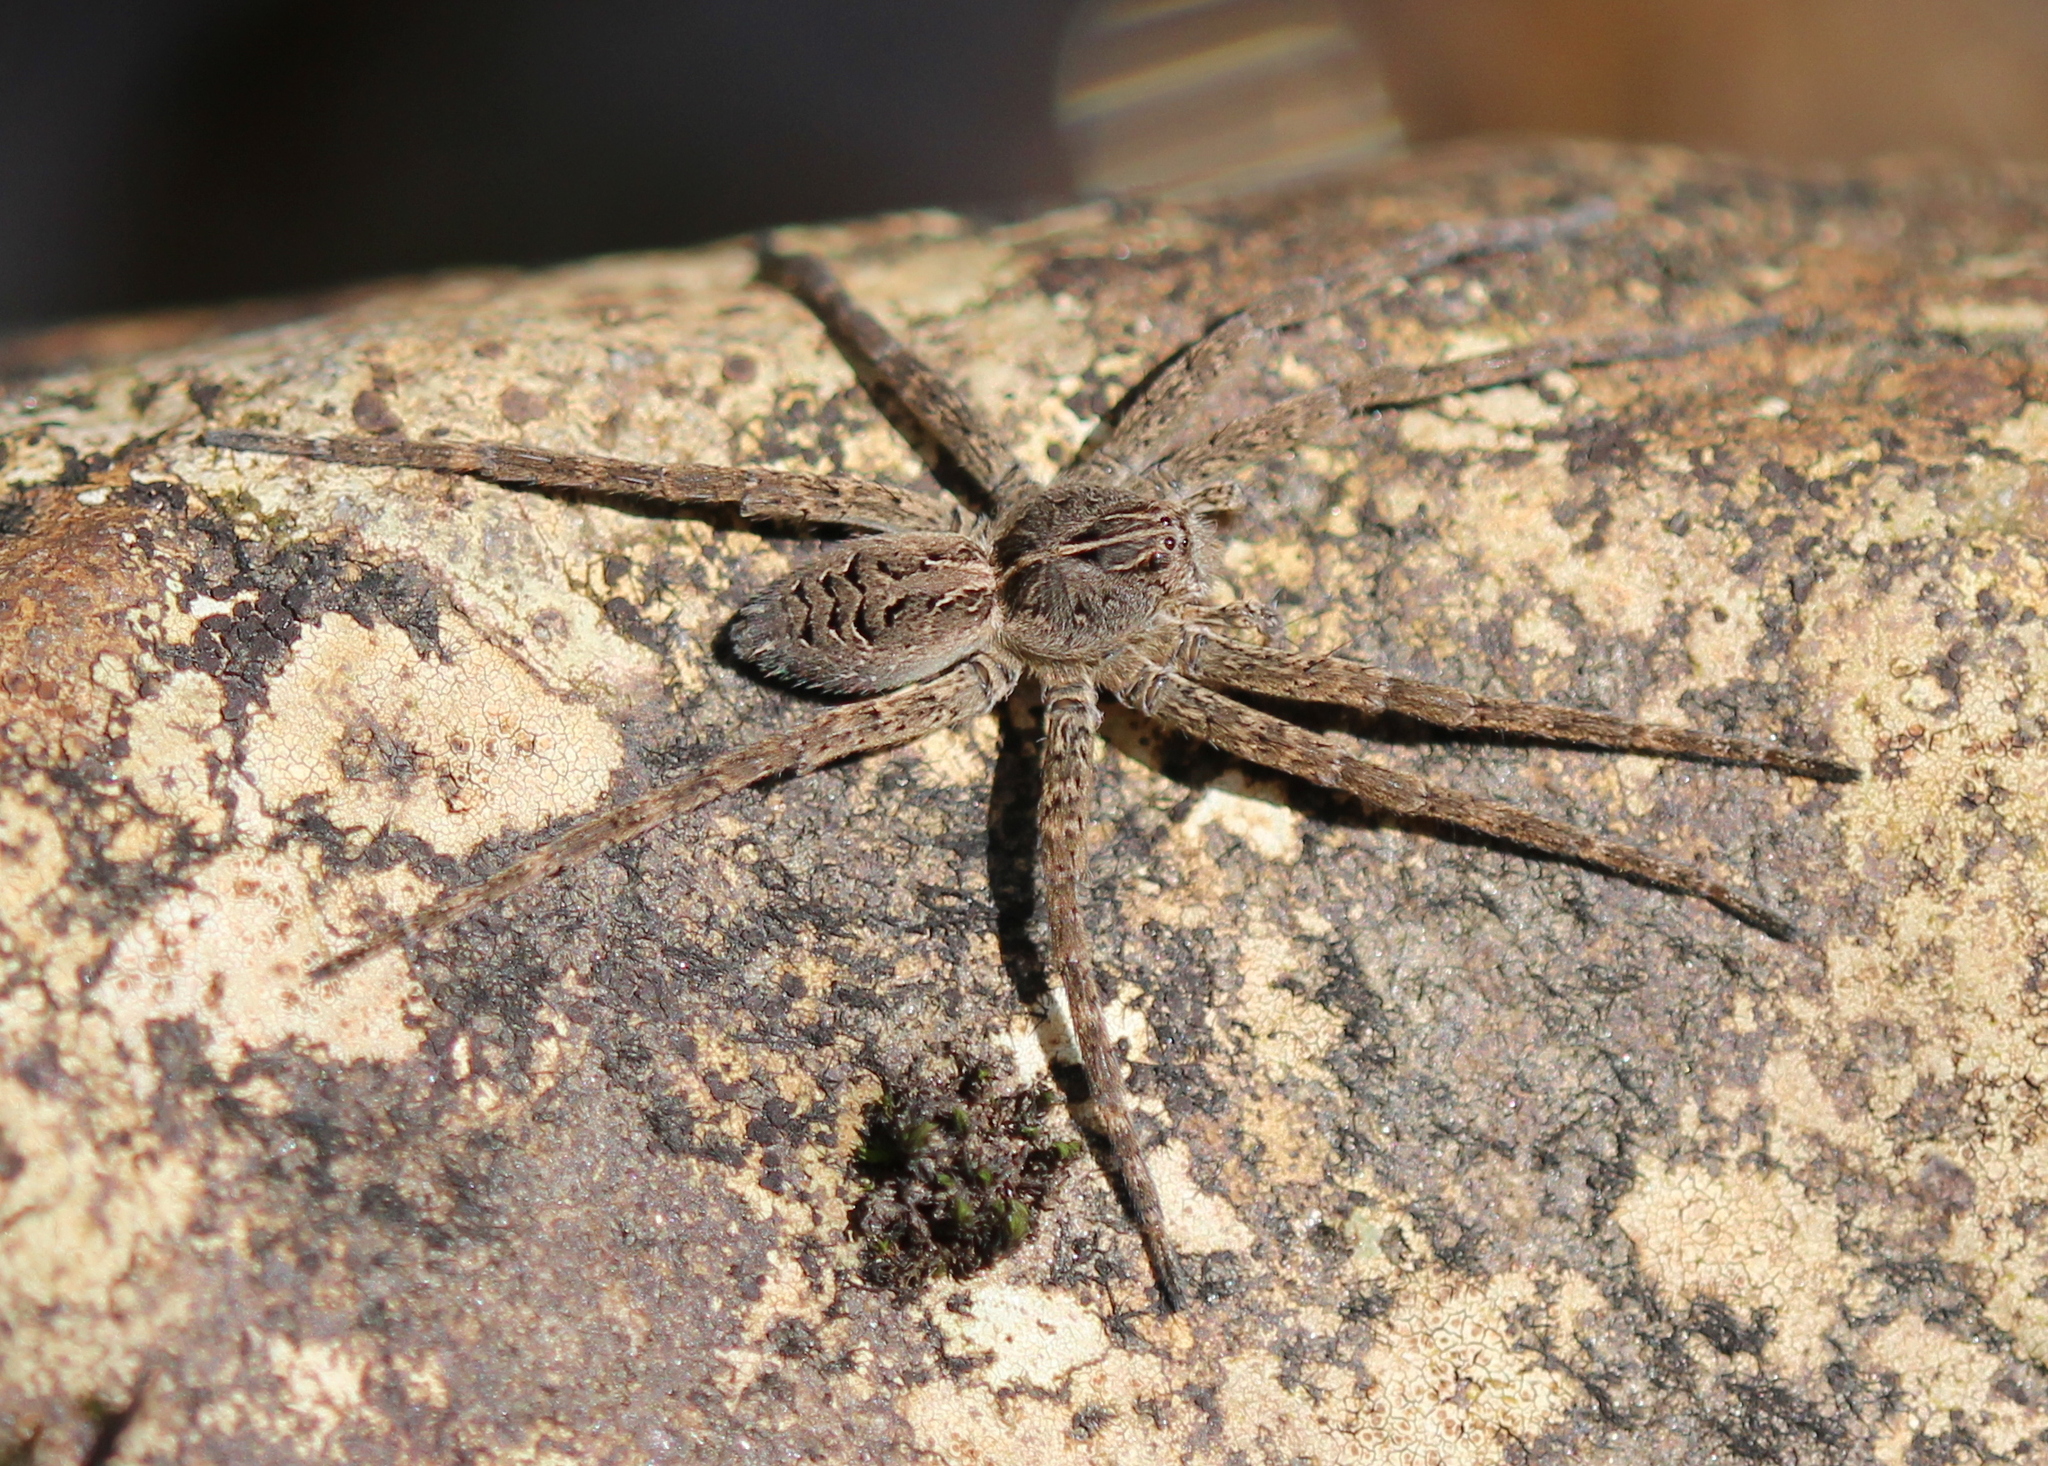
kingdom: Animalia
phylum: Arthropoda
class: Arachnida
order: Araneae
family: Pisauridae
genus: Dolomedes
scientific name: Dolomedes scriptus
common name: Striped fishing spider
